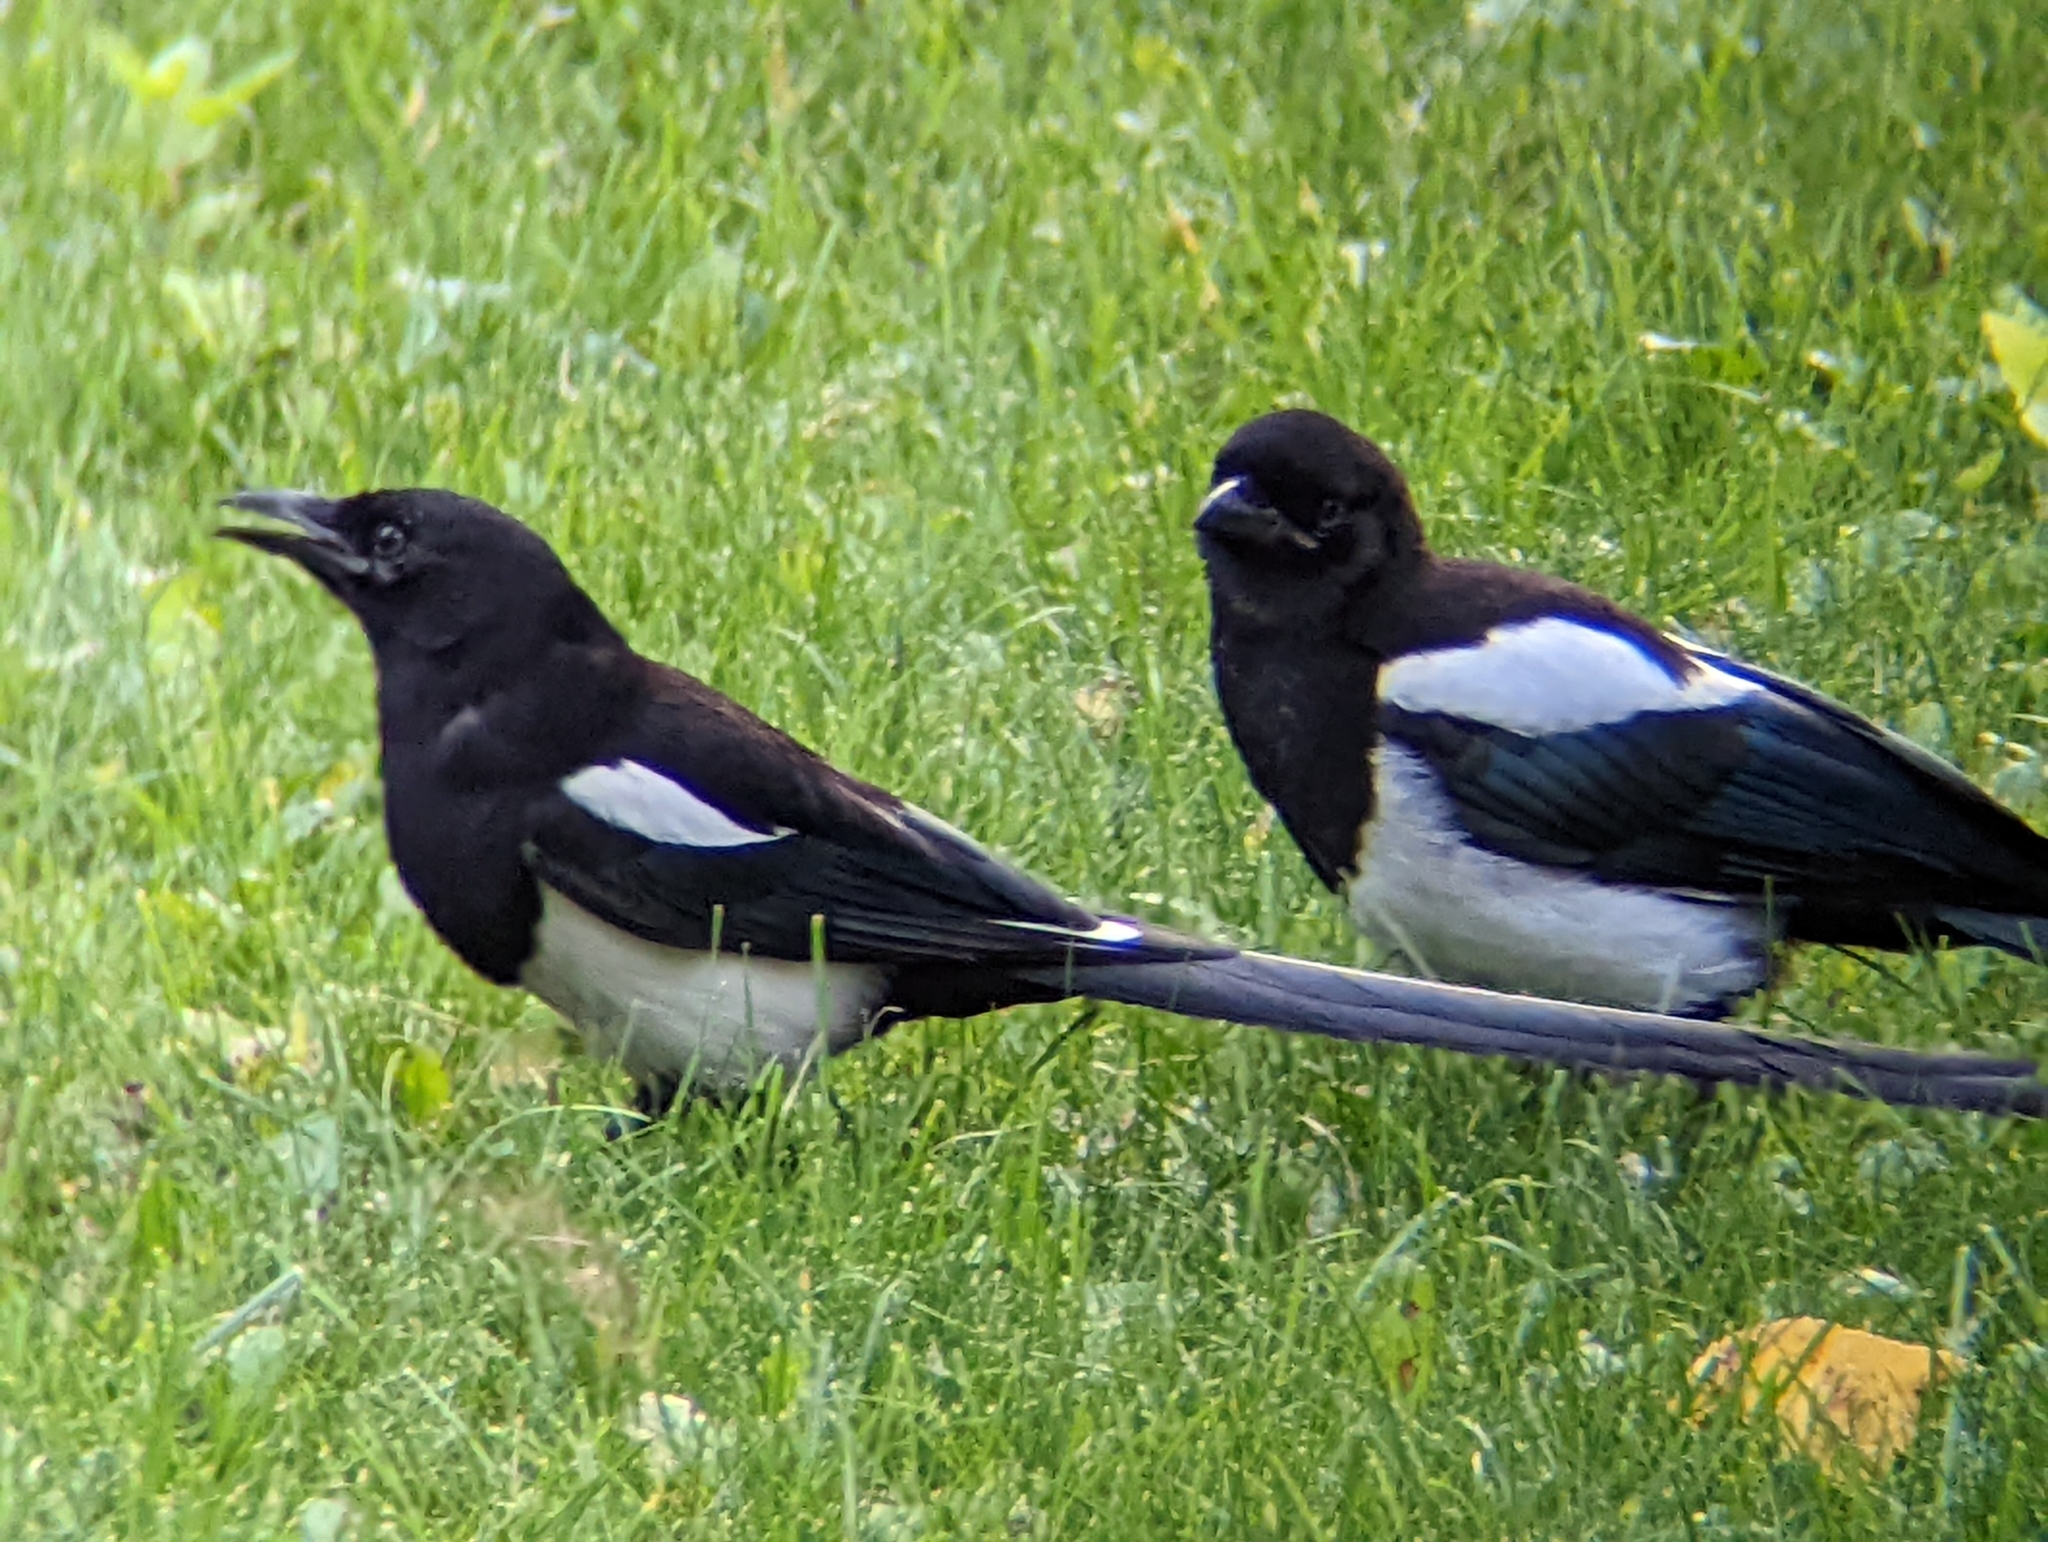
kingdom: Animalia
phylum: Chordata
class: Aves
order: Passeriformes
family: Corvidae
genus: Pica
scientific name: Pica hudsonia
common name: Black-billed magpie
